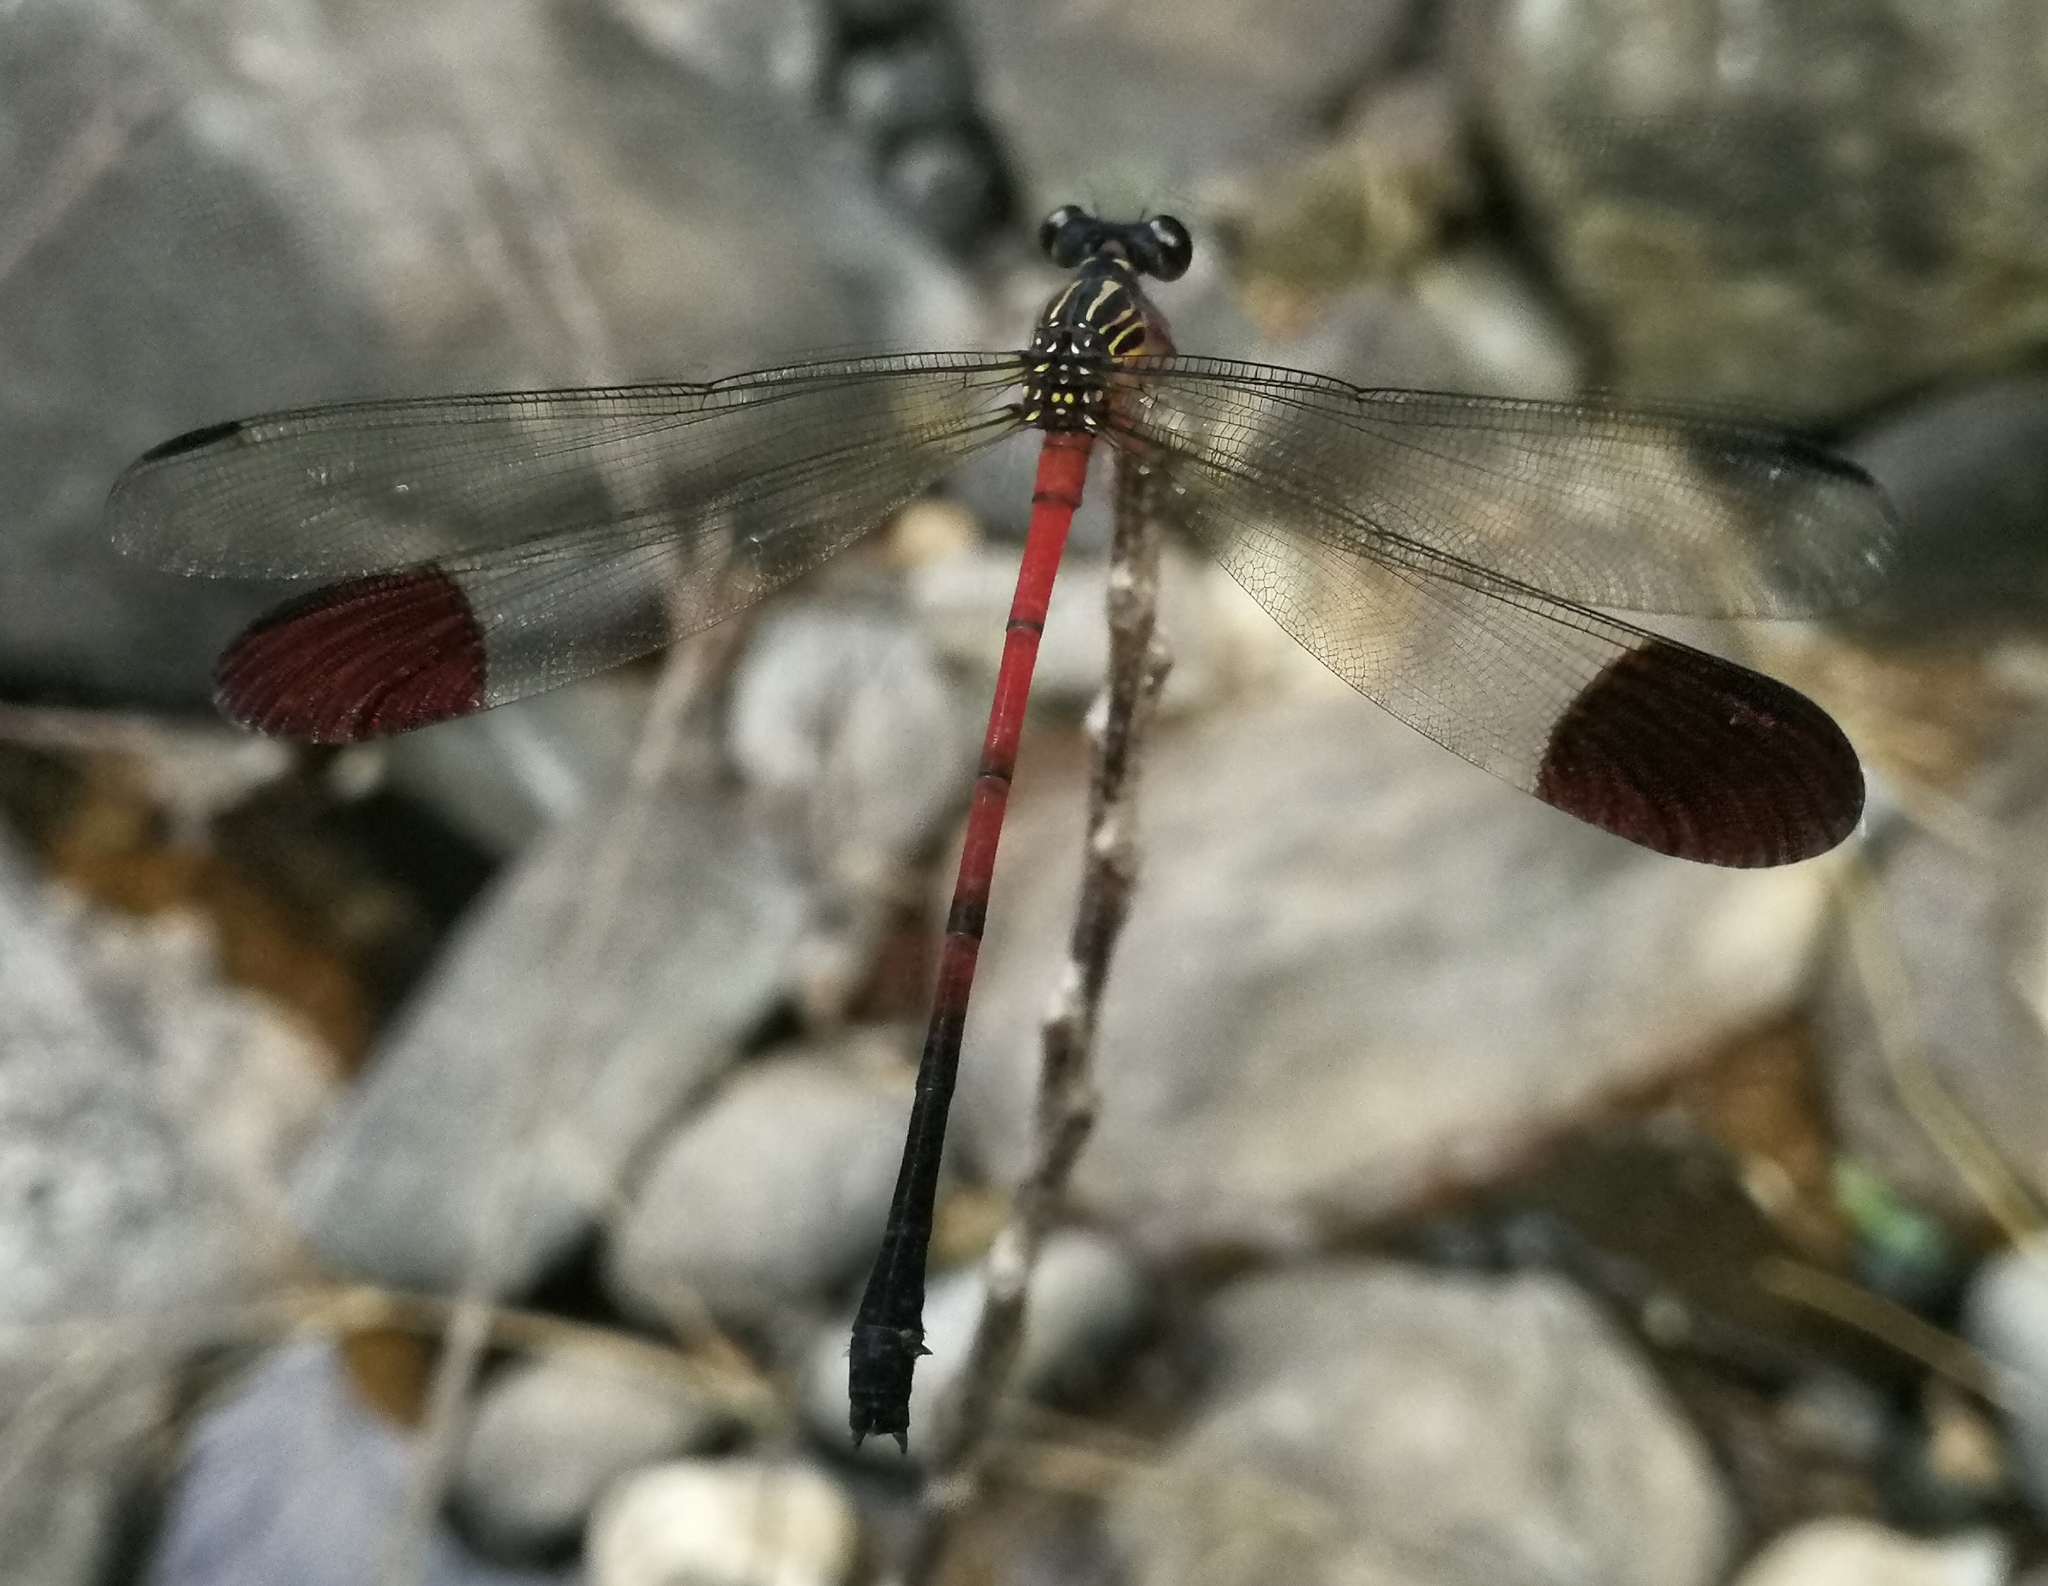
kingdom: Animalia
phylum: Arthropoda
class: Insecta
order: Odonata
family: Euphaeidae
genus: Euphaea
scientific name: Euphaea dispar
